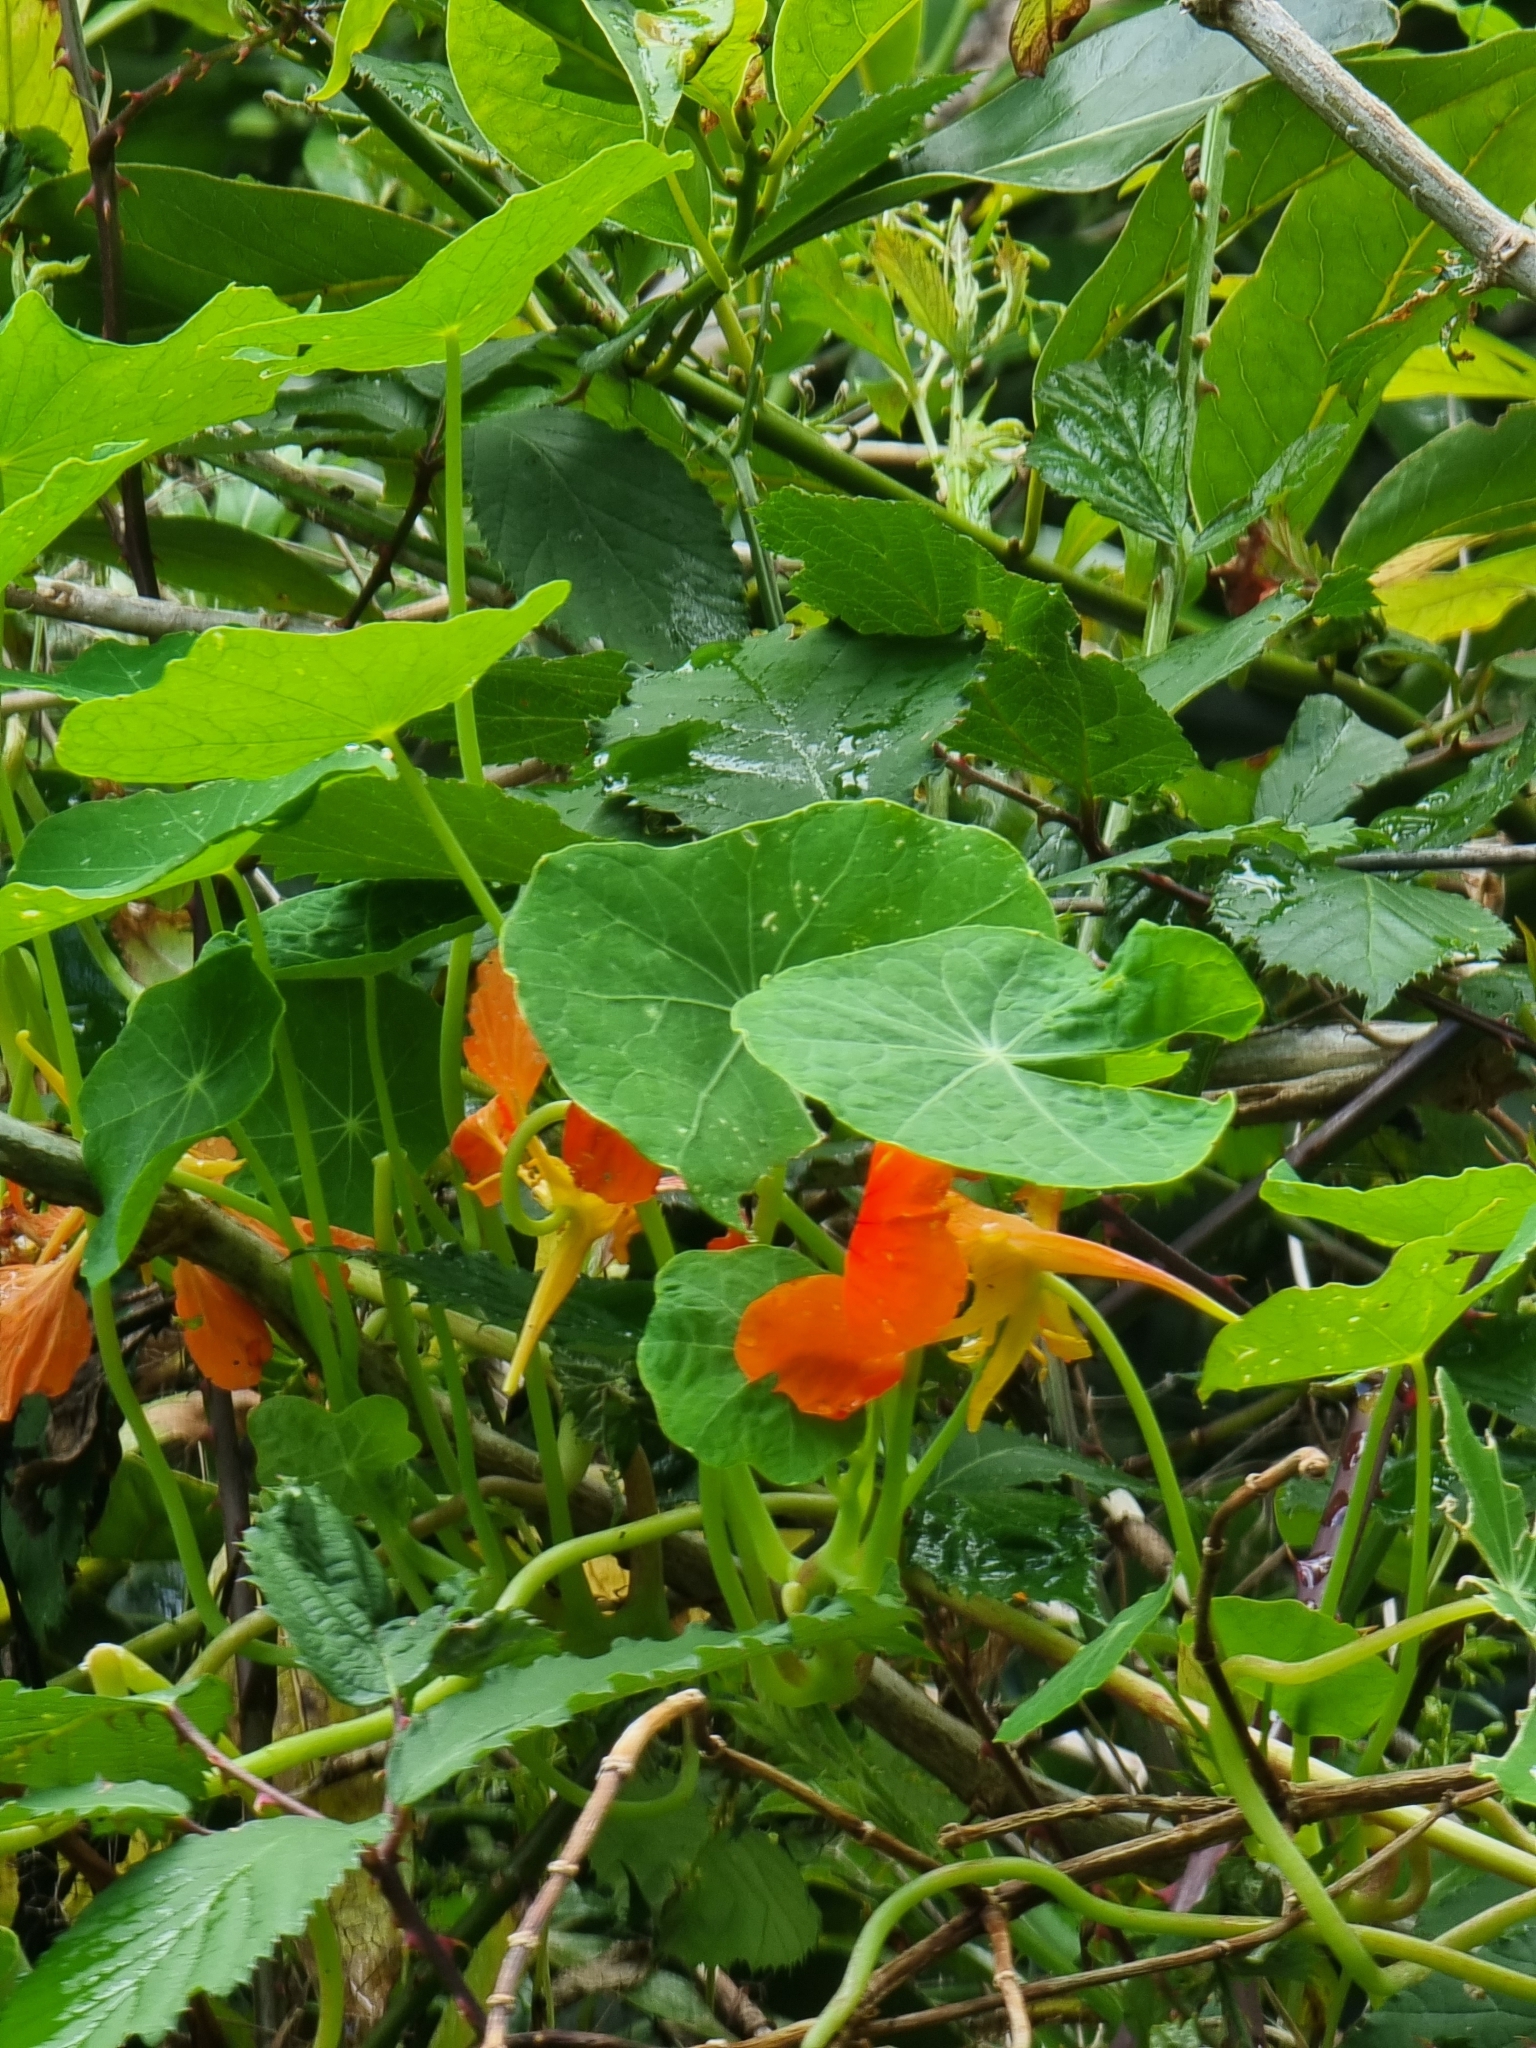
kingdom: Plantae
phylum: Tracheophyta
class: Magnoliopsida
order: Brassicales
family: Tropaeolaceae
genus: Tropaeolum
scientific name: Tropaeolum majus
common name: Nasturtium
